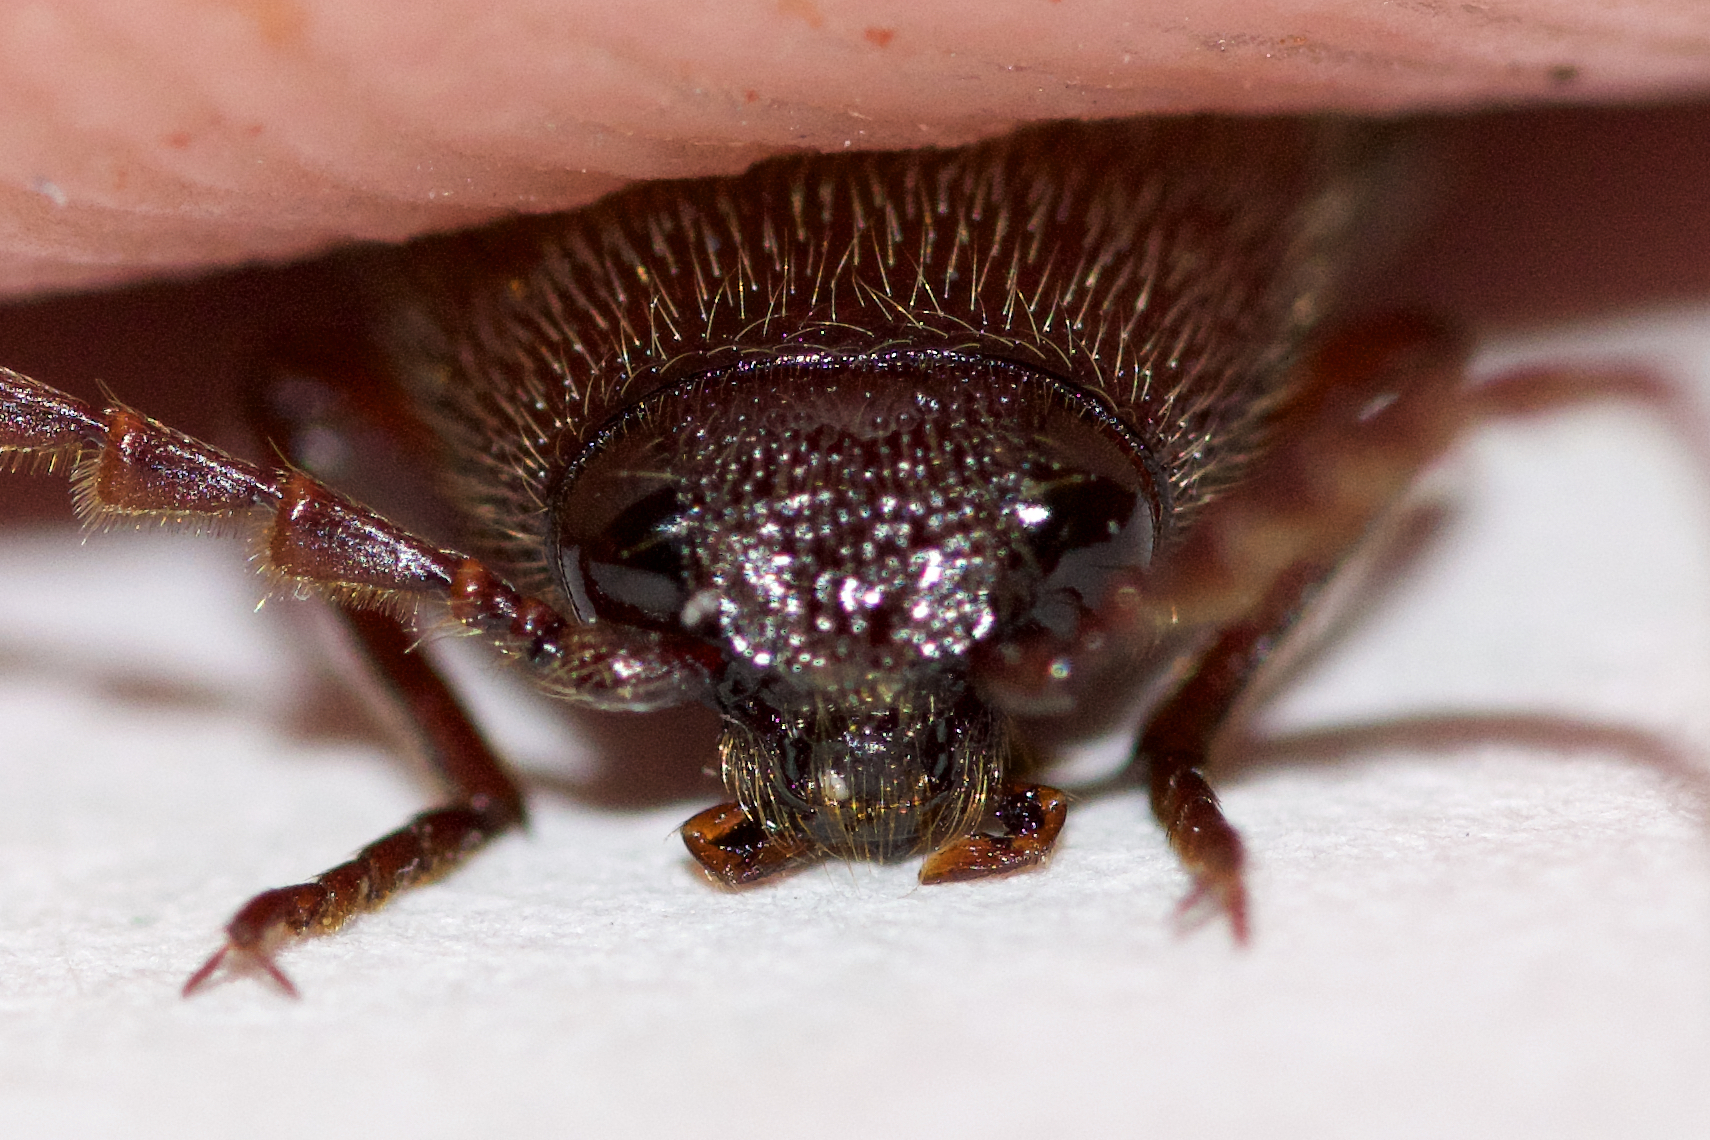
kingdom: Animalia
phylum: Arthropoda
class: Insecta
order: Coleoptera
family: Elateridae
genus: Melanotus
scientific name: Melanotus castanipes
